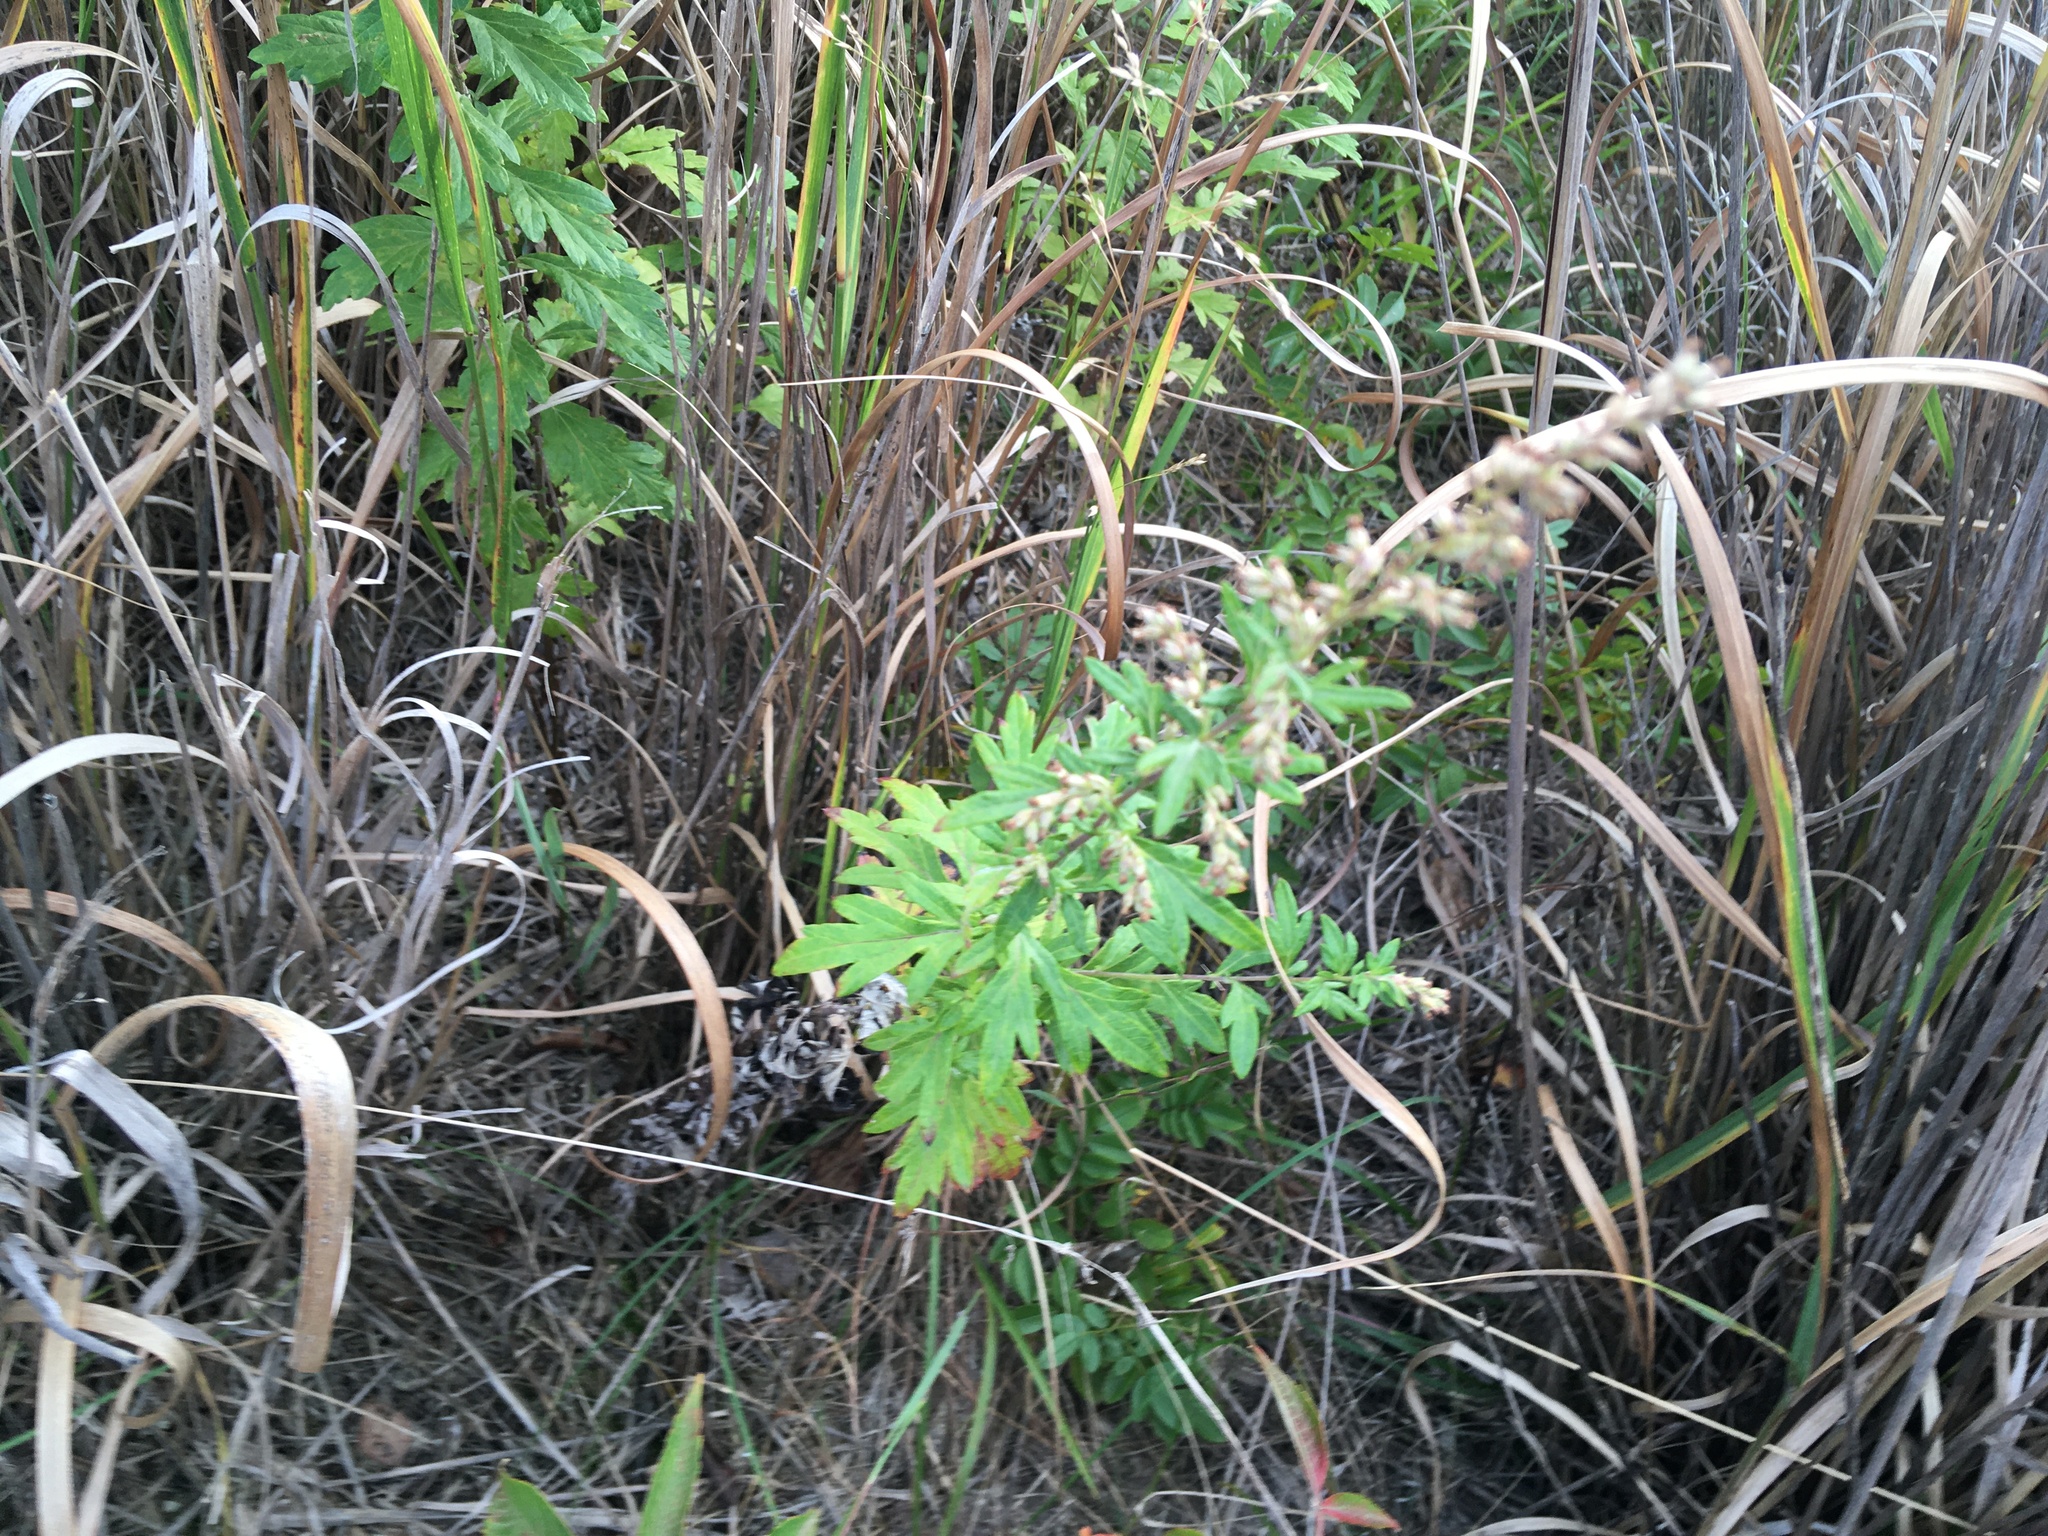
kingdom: Plantae
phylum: Tracheophyta
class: Magnoliopsida
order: Asterales
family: Asteraceae
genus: Artemisia
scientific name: Artemisia vulgaris
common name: Mugwort
